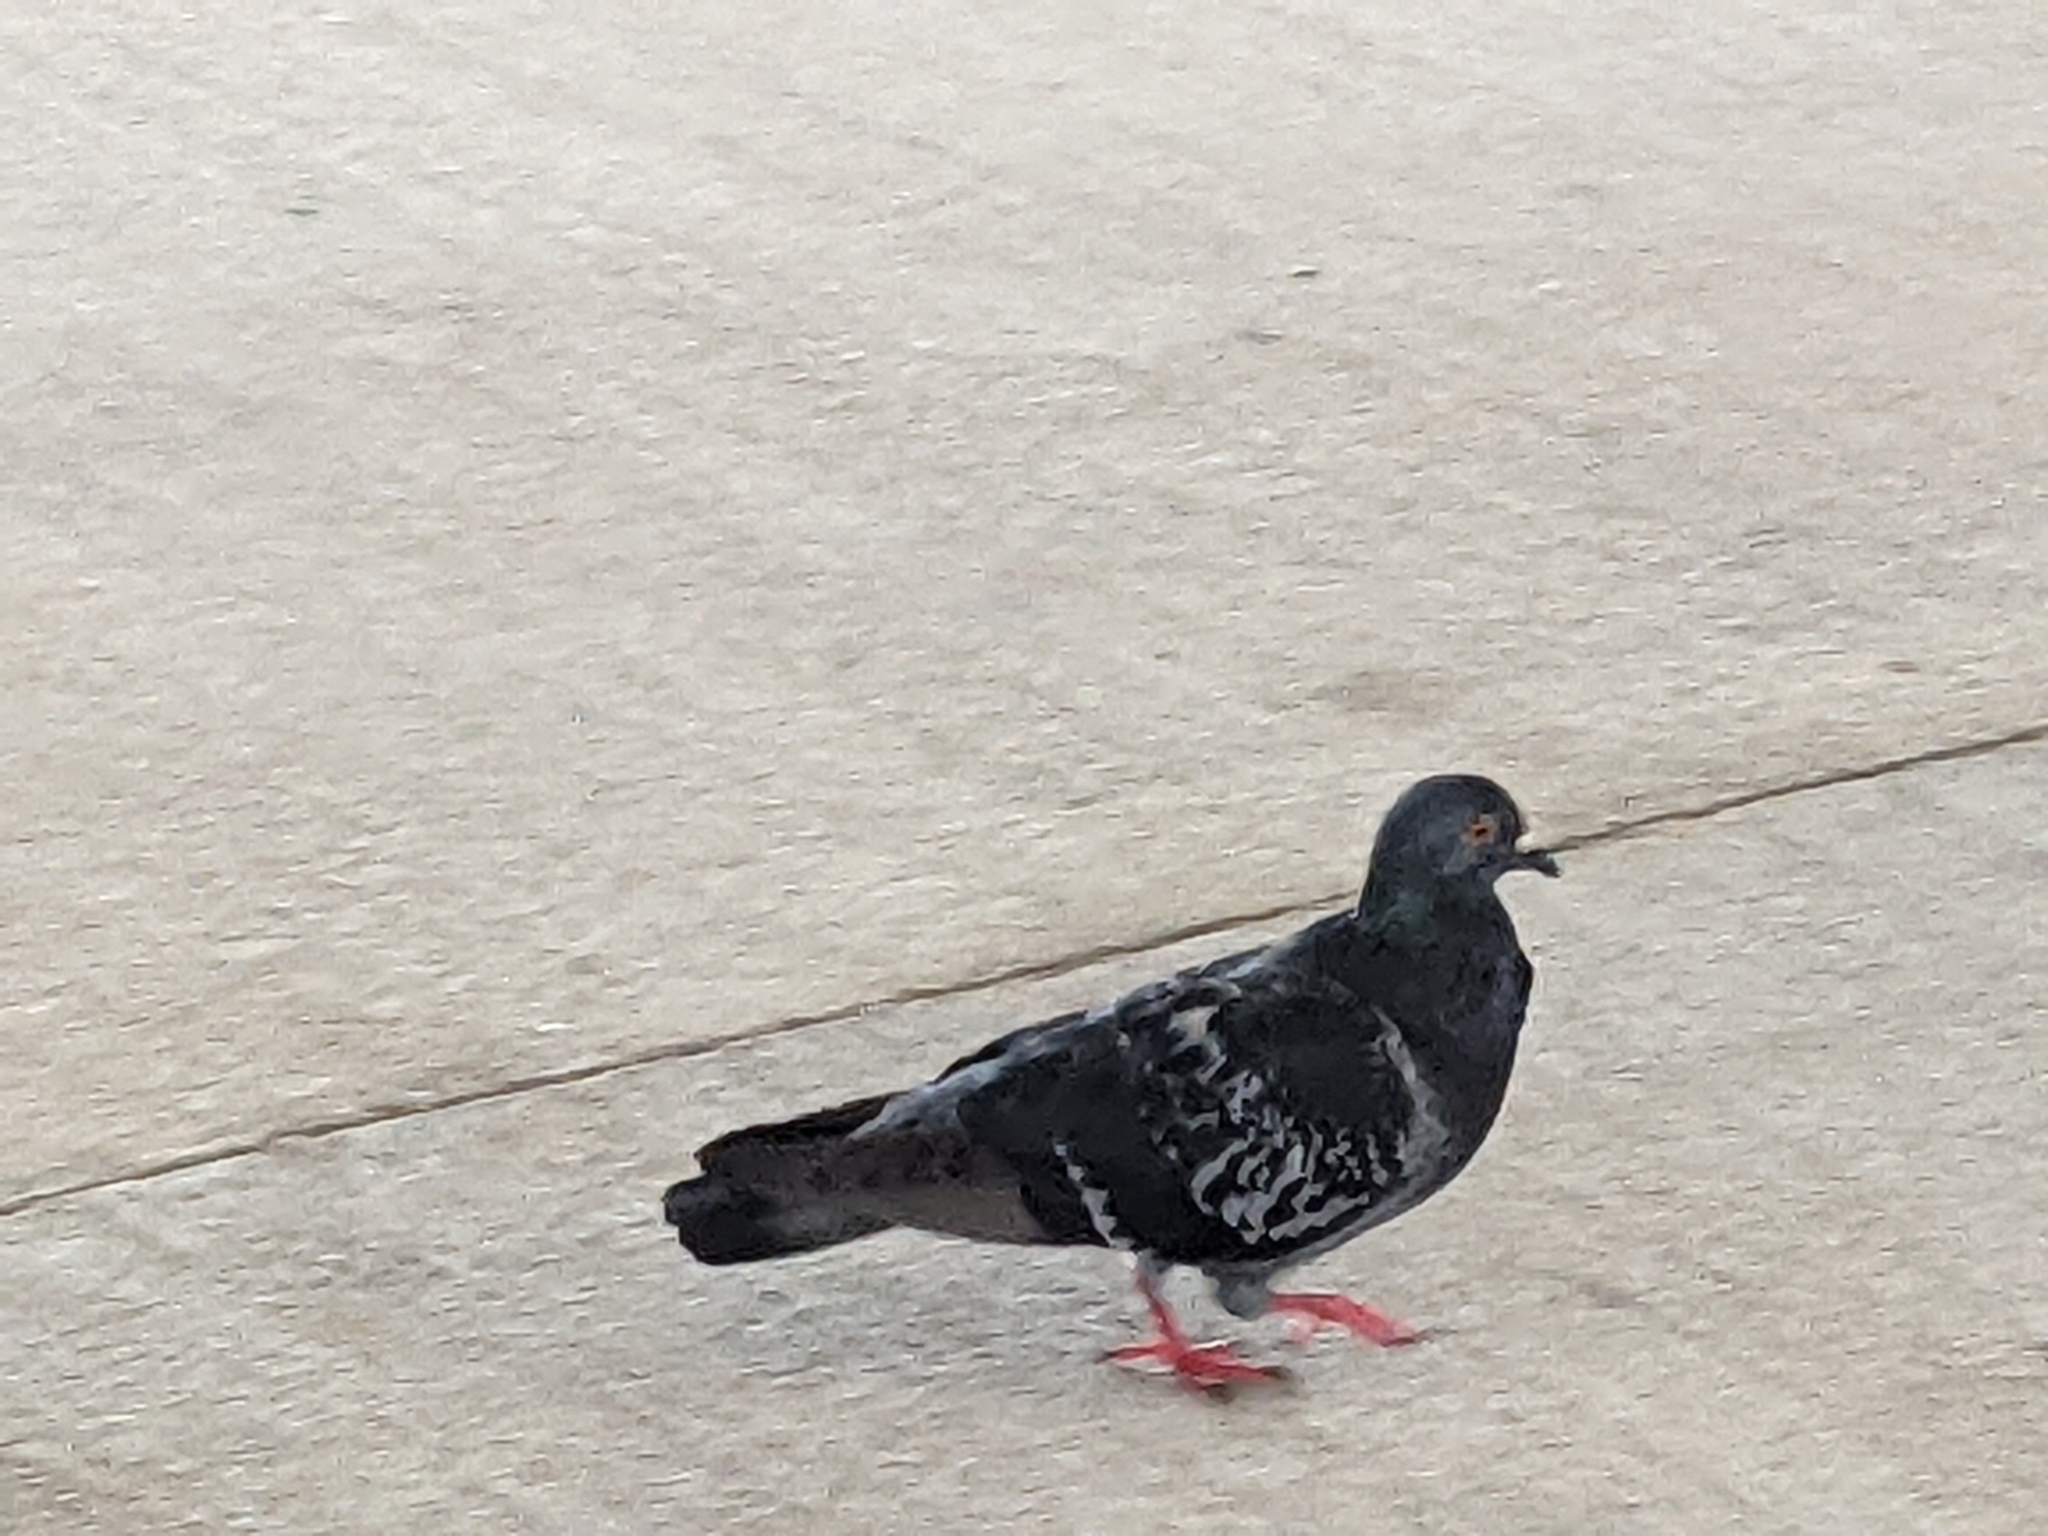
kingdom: Animalia
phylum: Chordata
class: Aves
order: Columbiformes
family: Columbidae
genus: Columba
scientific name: Columba livia
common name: Rock pigeon
